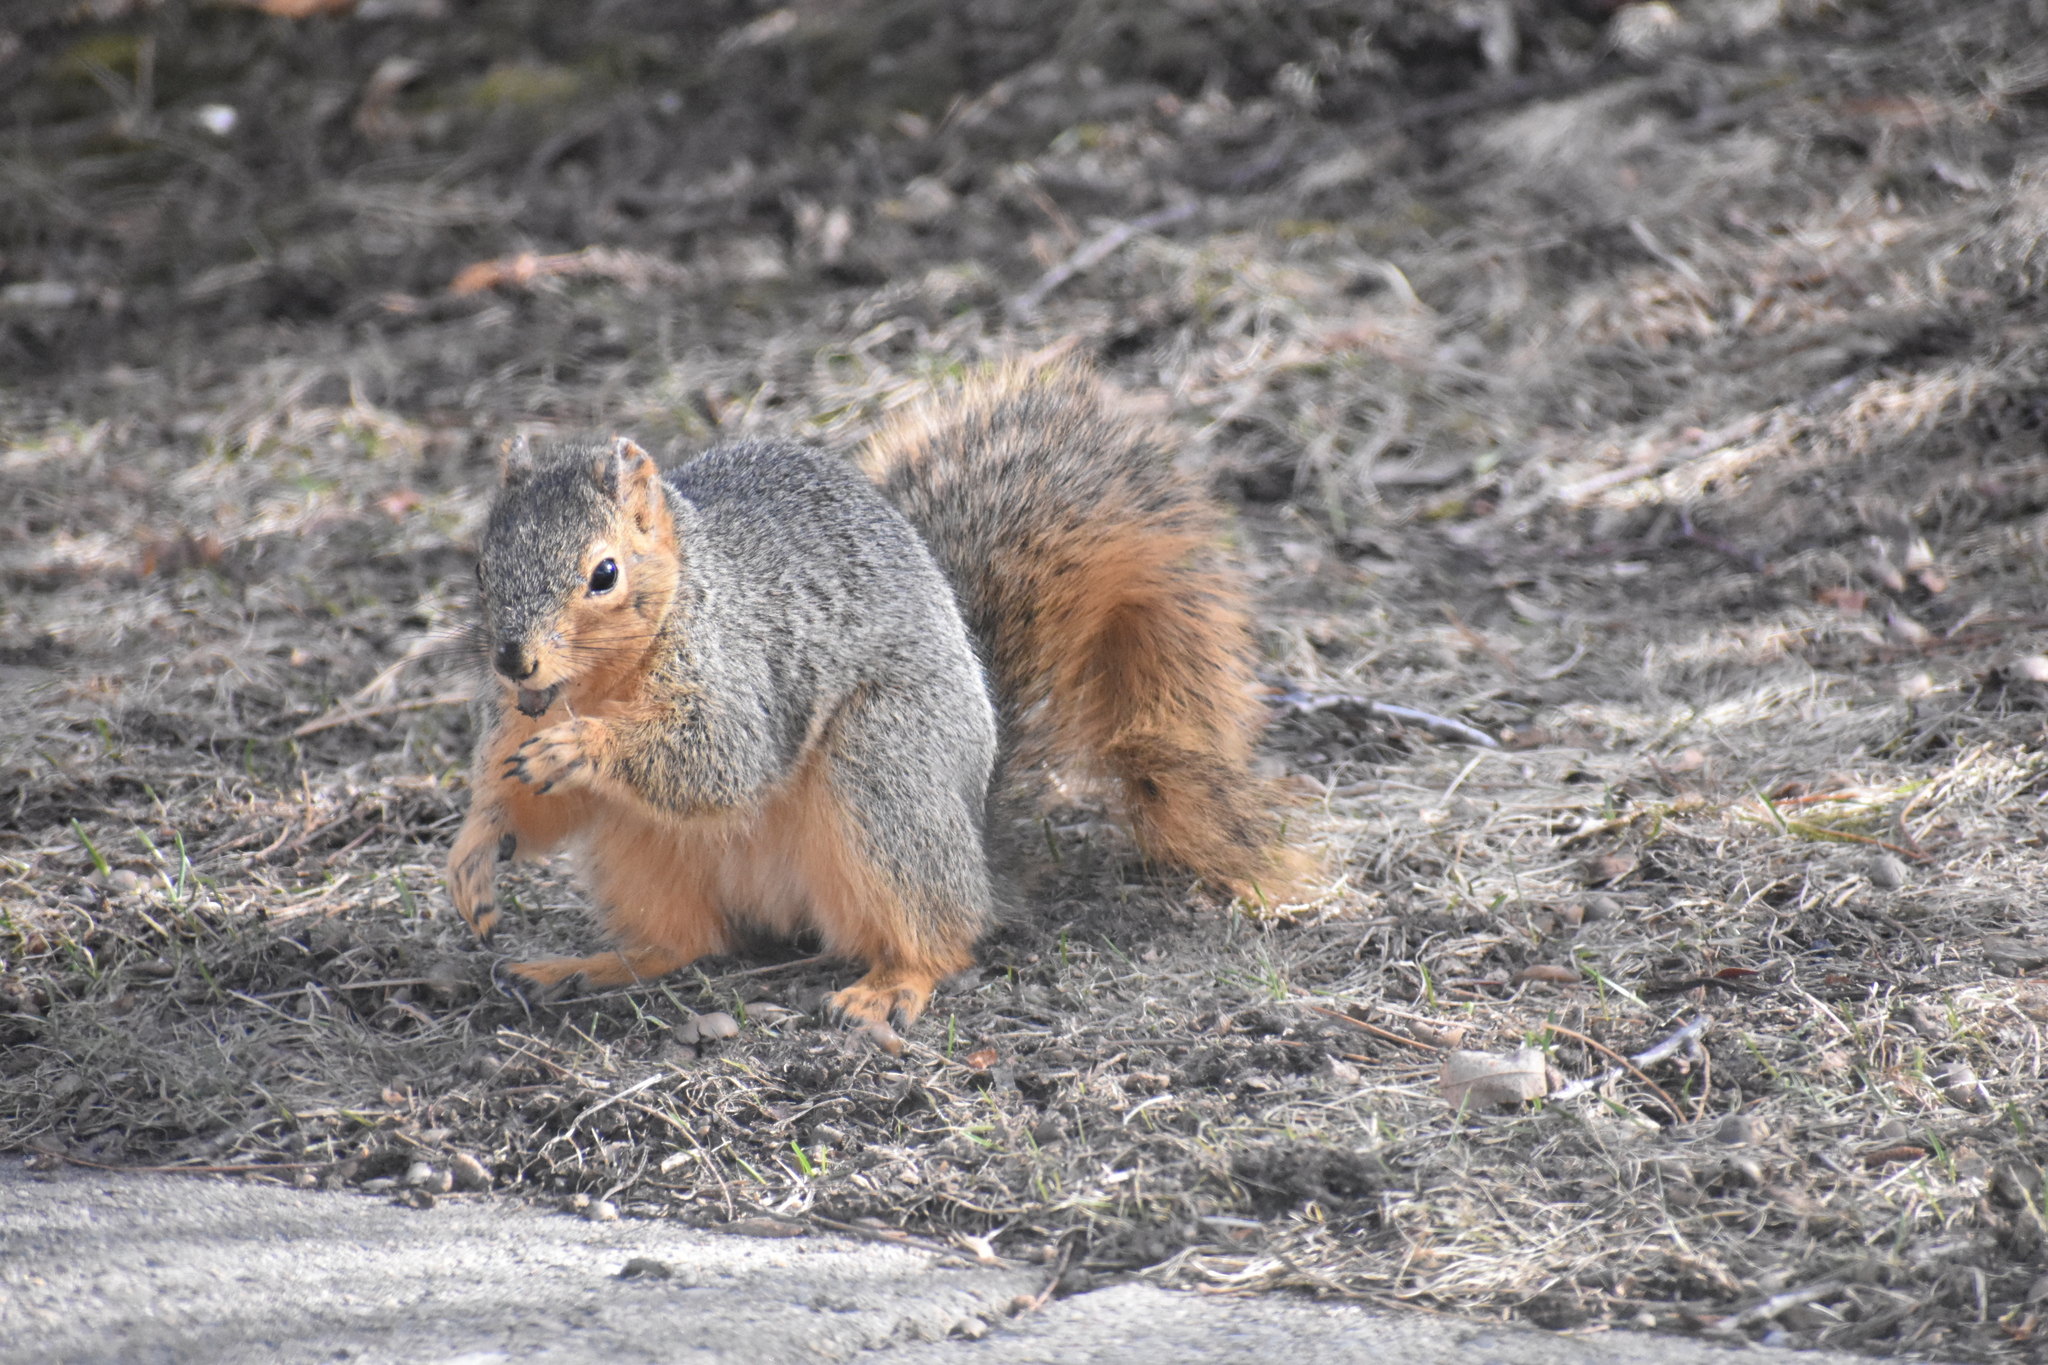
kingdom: Animalia
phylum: Chordata
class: Mammalia
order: Rodentia
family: Sciuridae
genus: Sciurus
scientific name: Sciurus niger
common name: Fox squirrel
